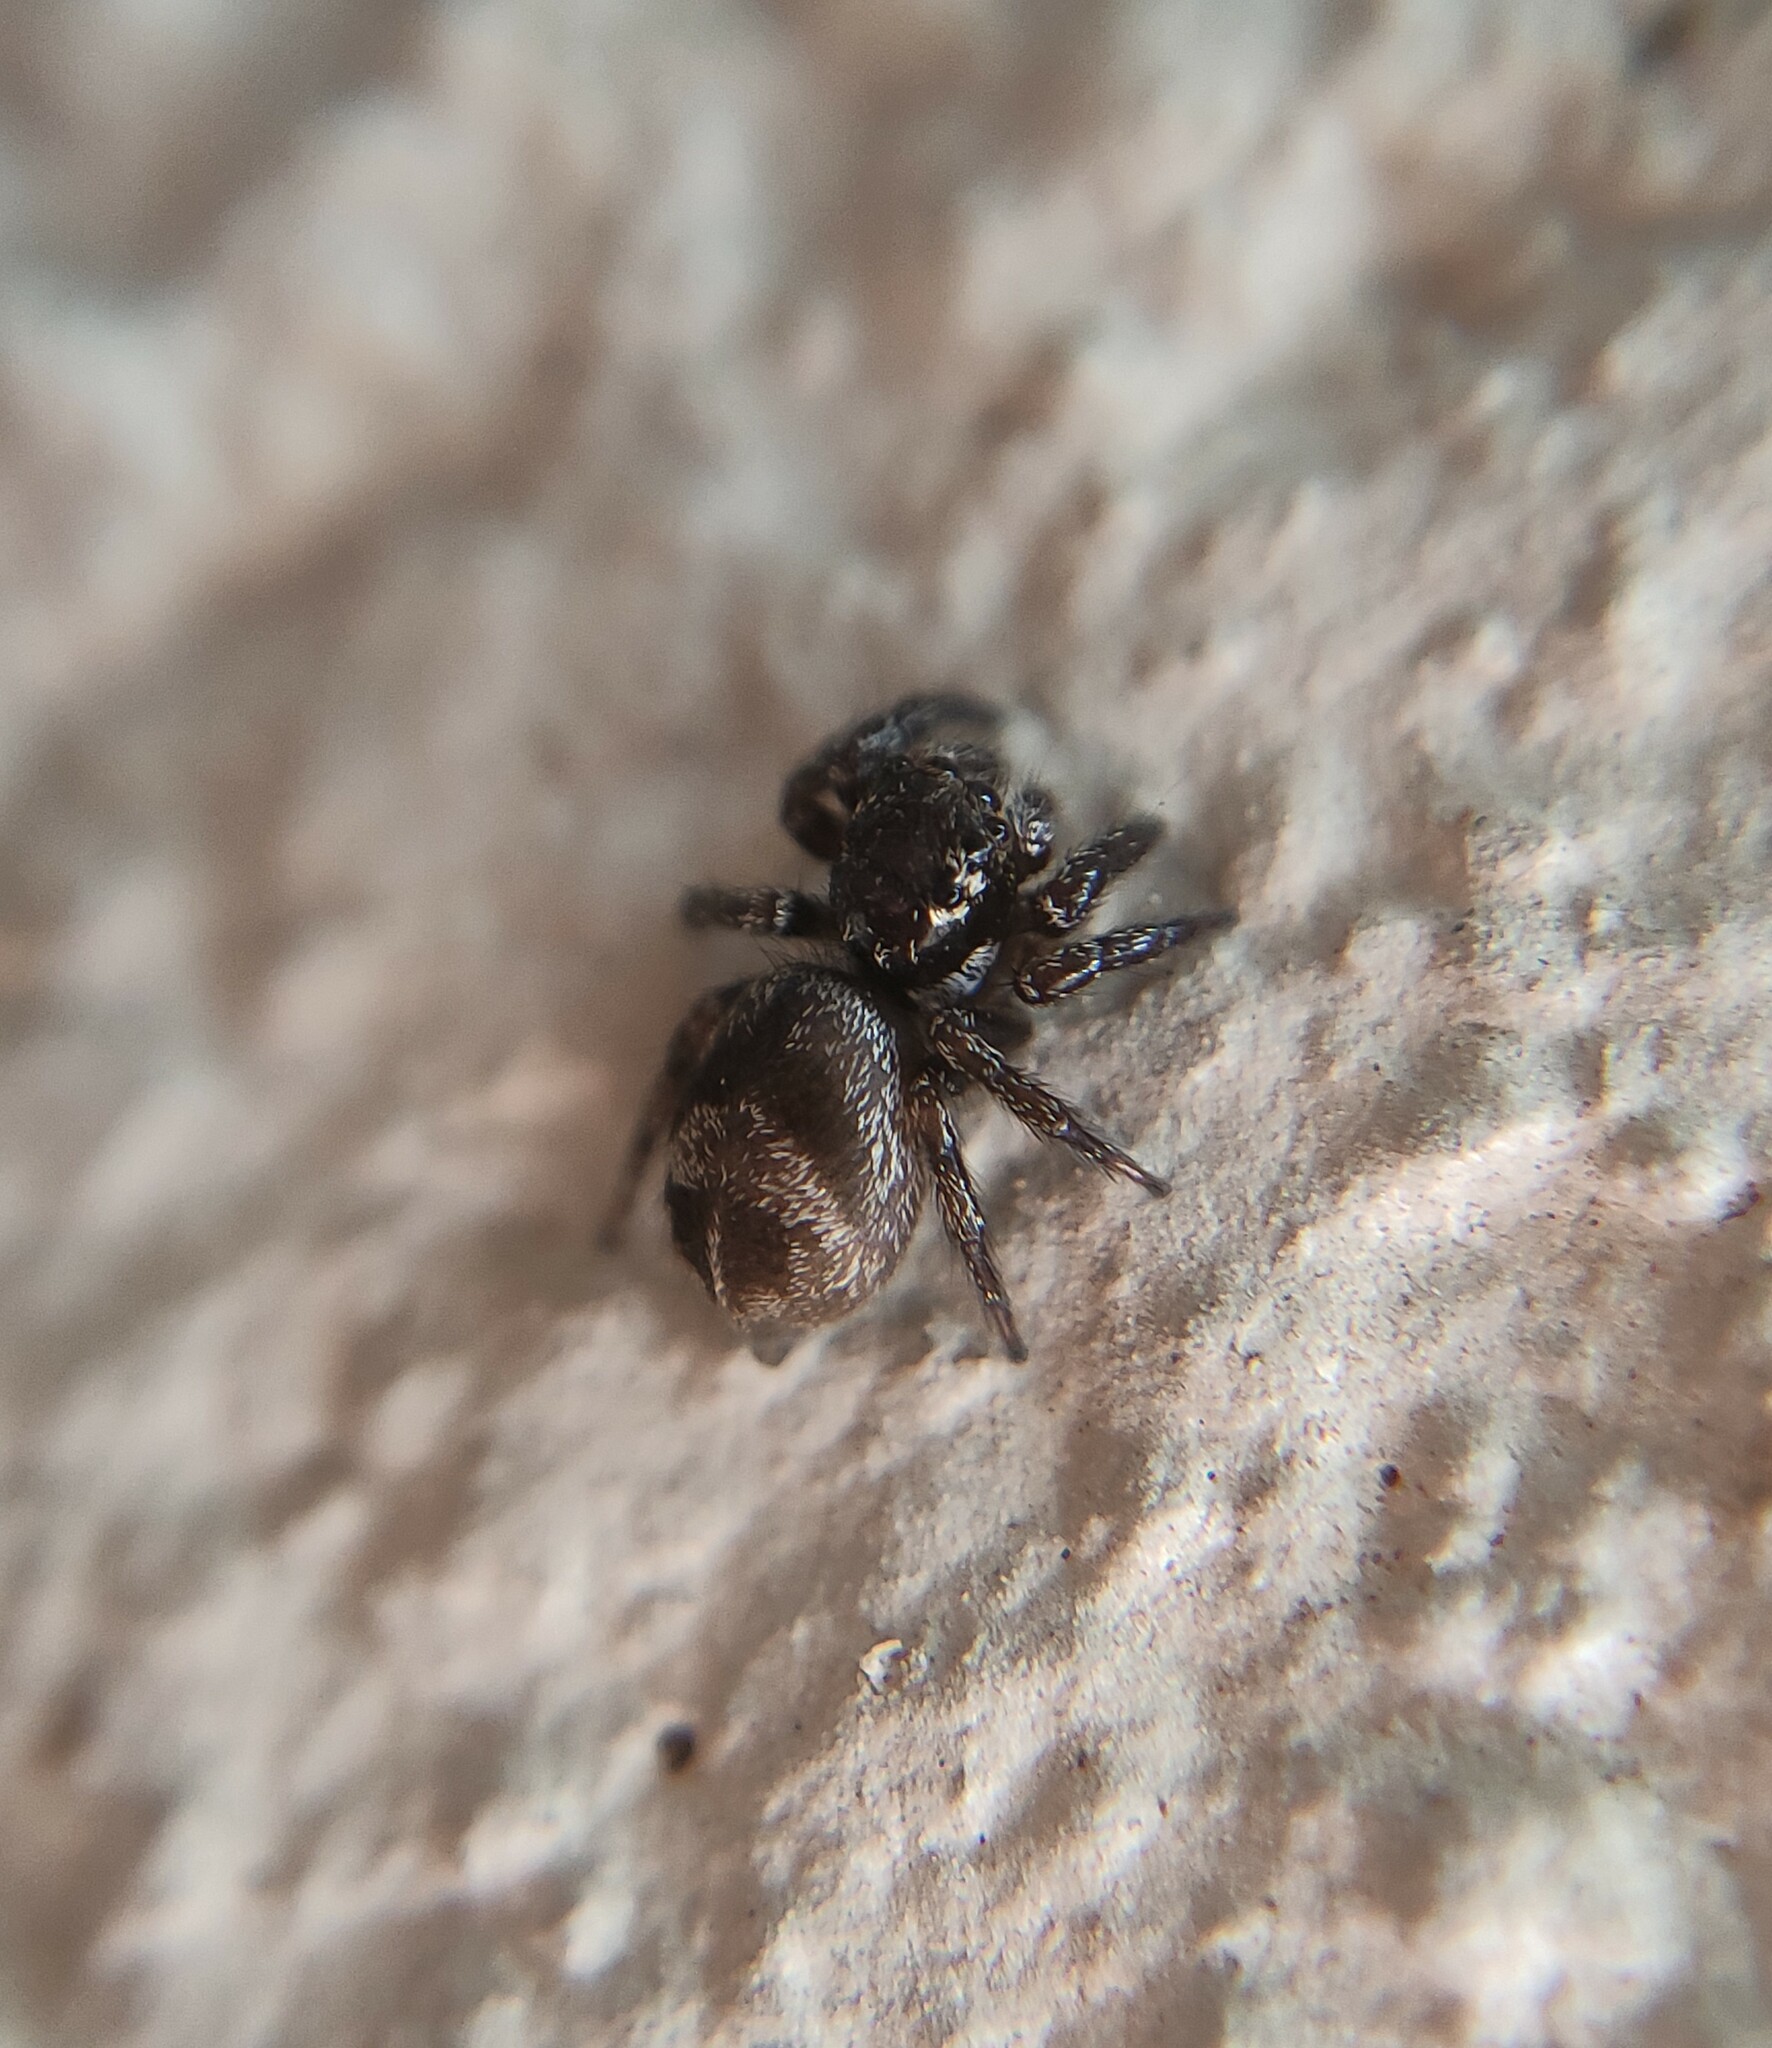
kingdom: Animalia
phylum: Arthropoda
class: Arachnida
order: Araneae
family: Salticidae
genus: Corythalia
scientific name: Corythalia conferta
